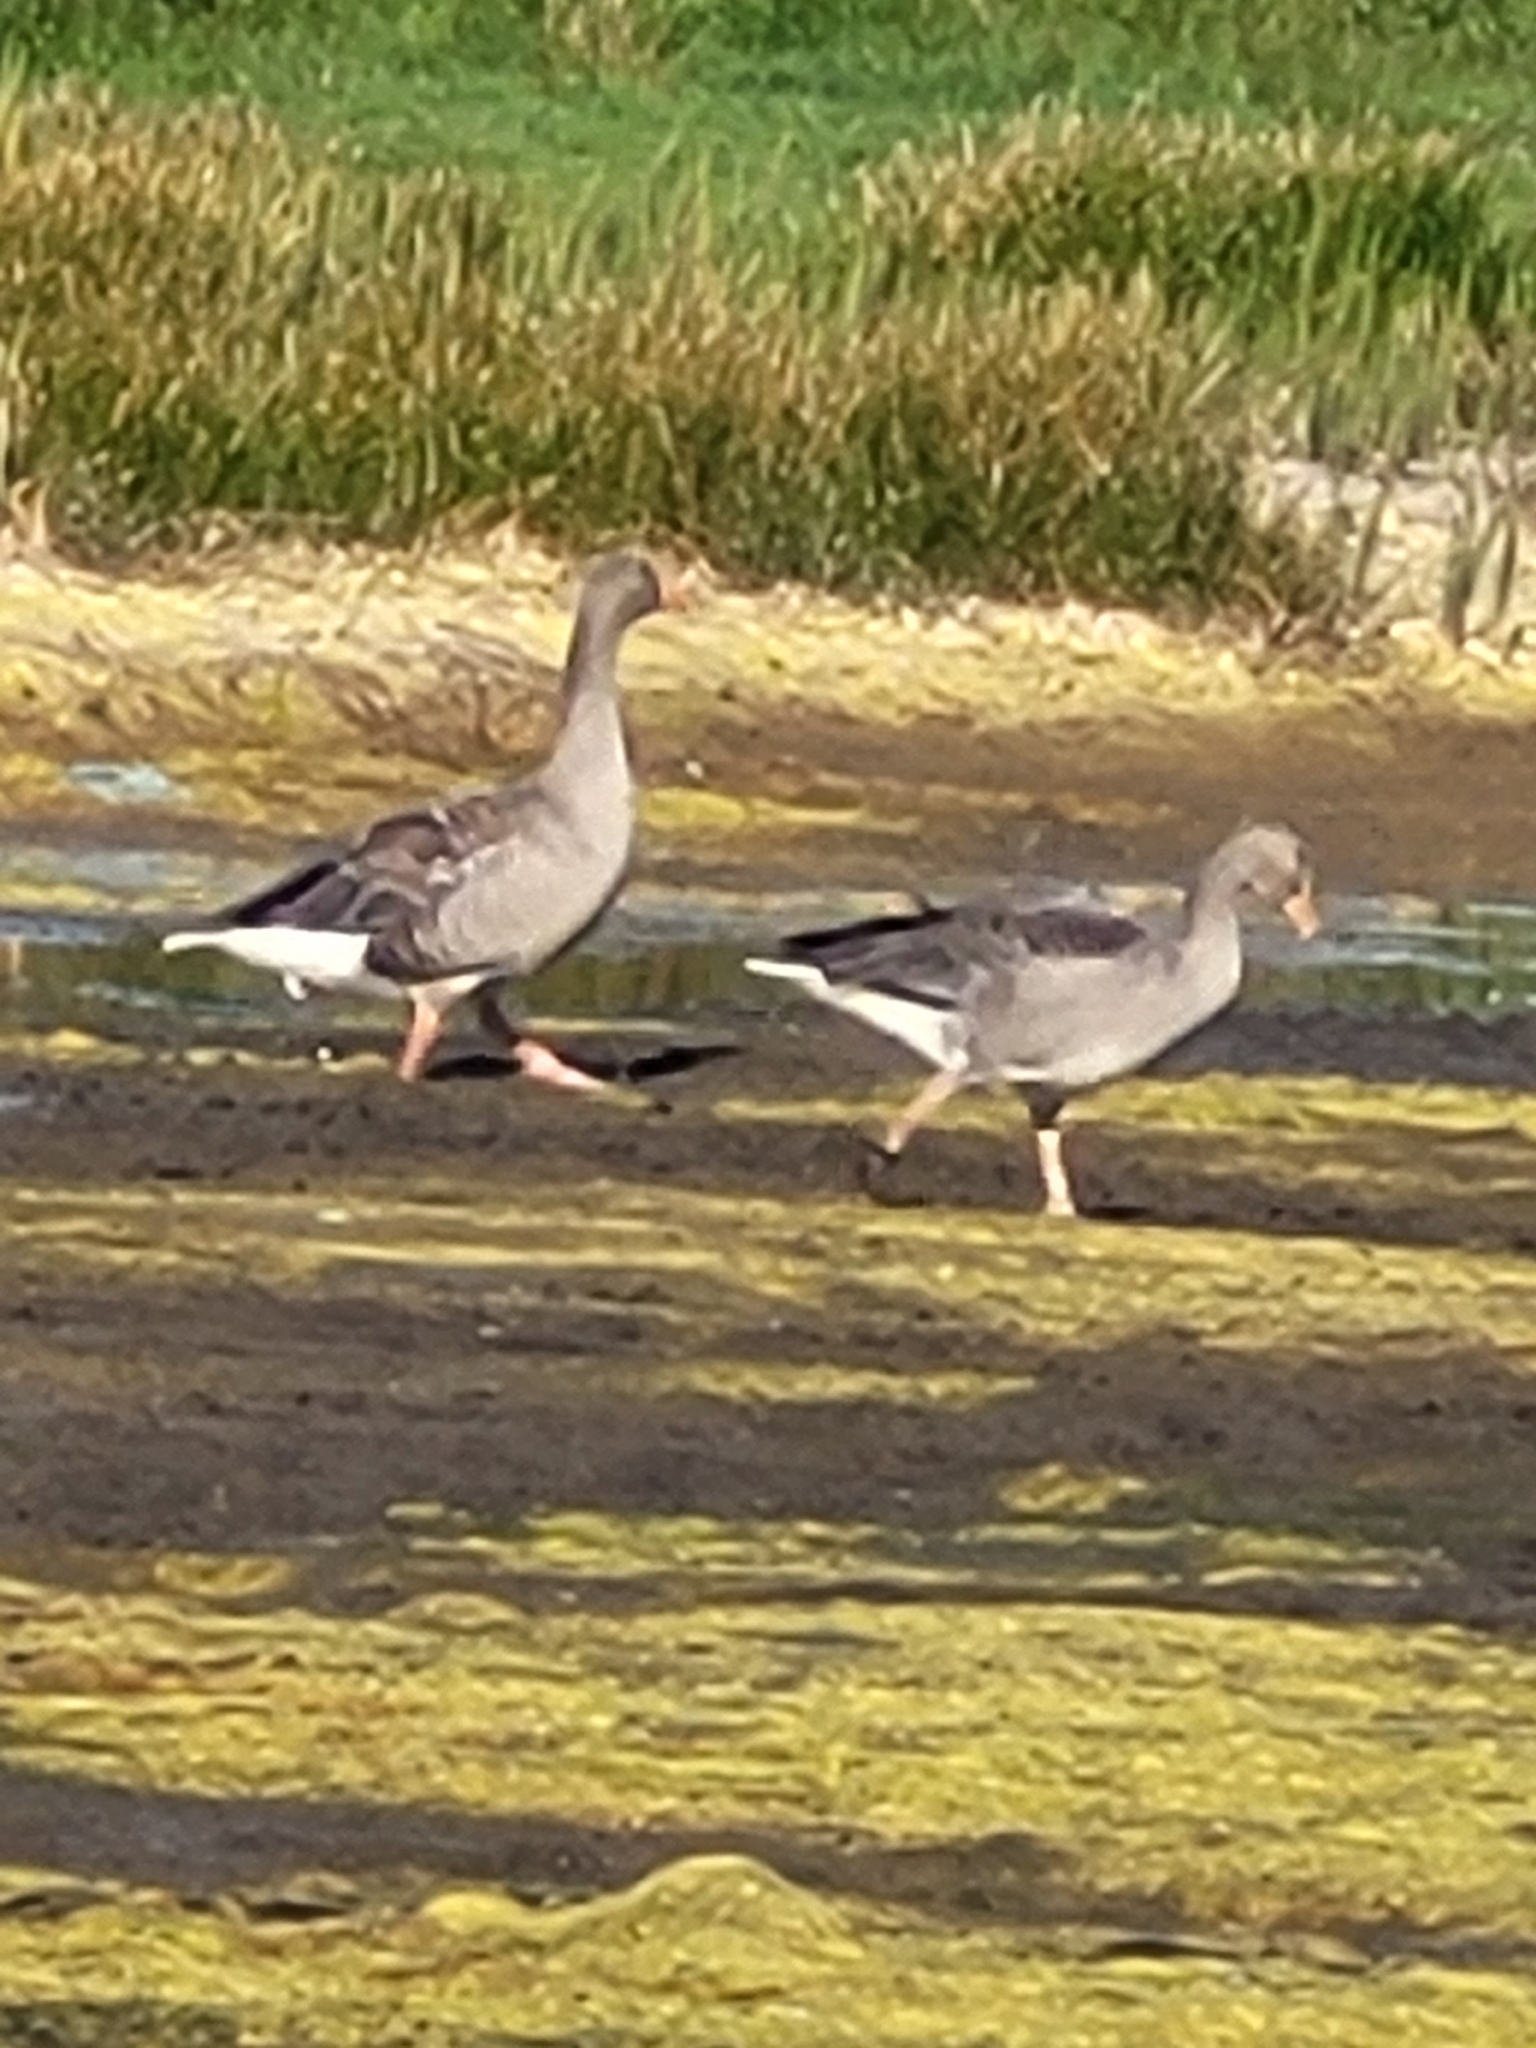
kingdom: Animalia
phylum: Chordata
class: Aves
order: Anseriformes
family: Anatidae
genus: Anser
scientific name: Anser anser
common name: Greylag goose
